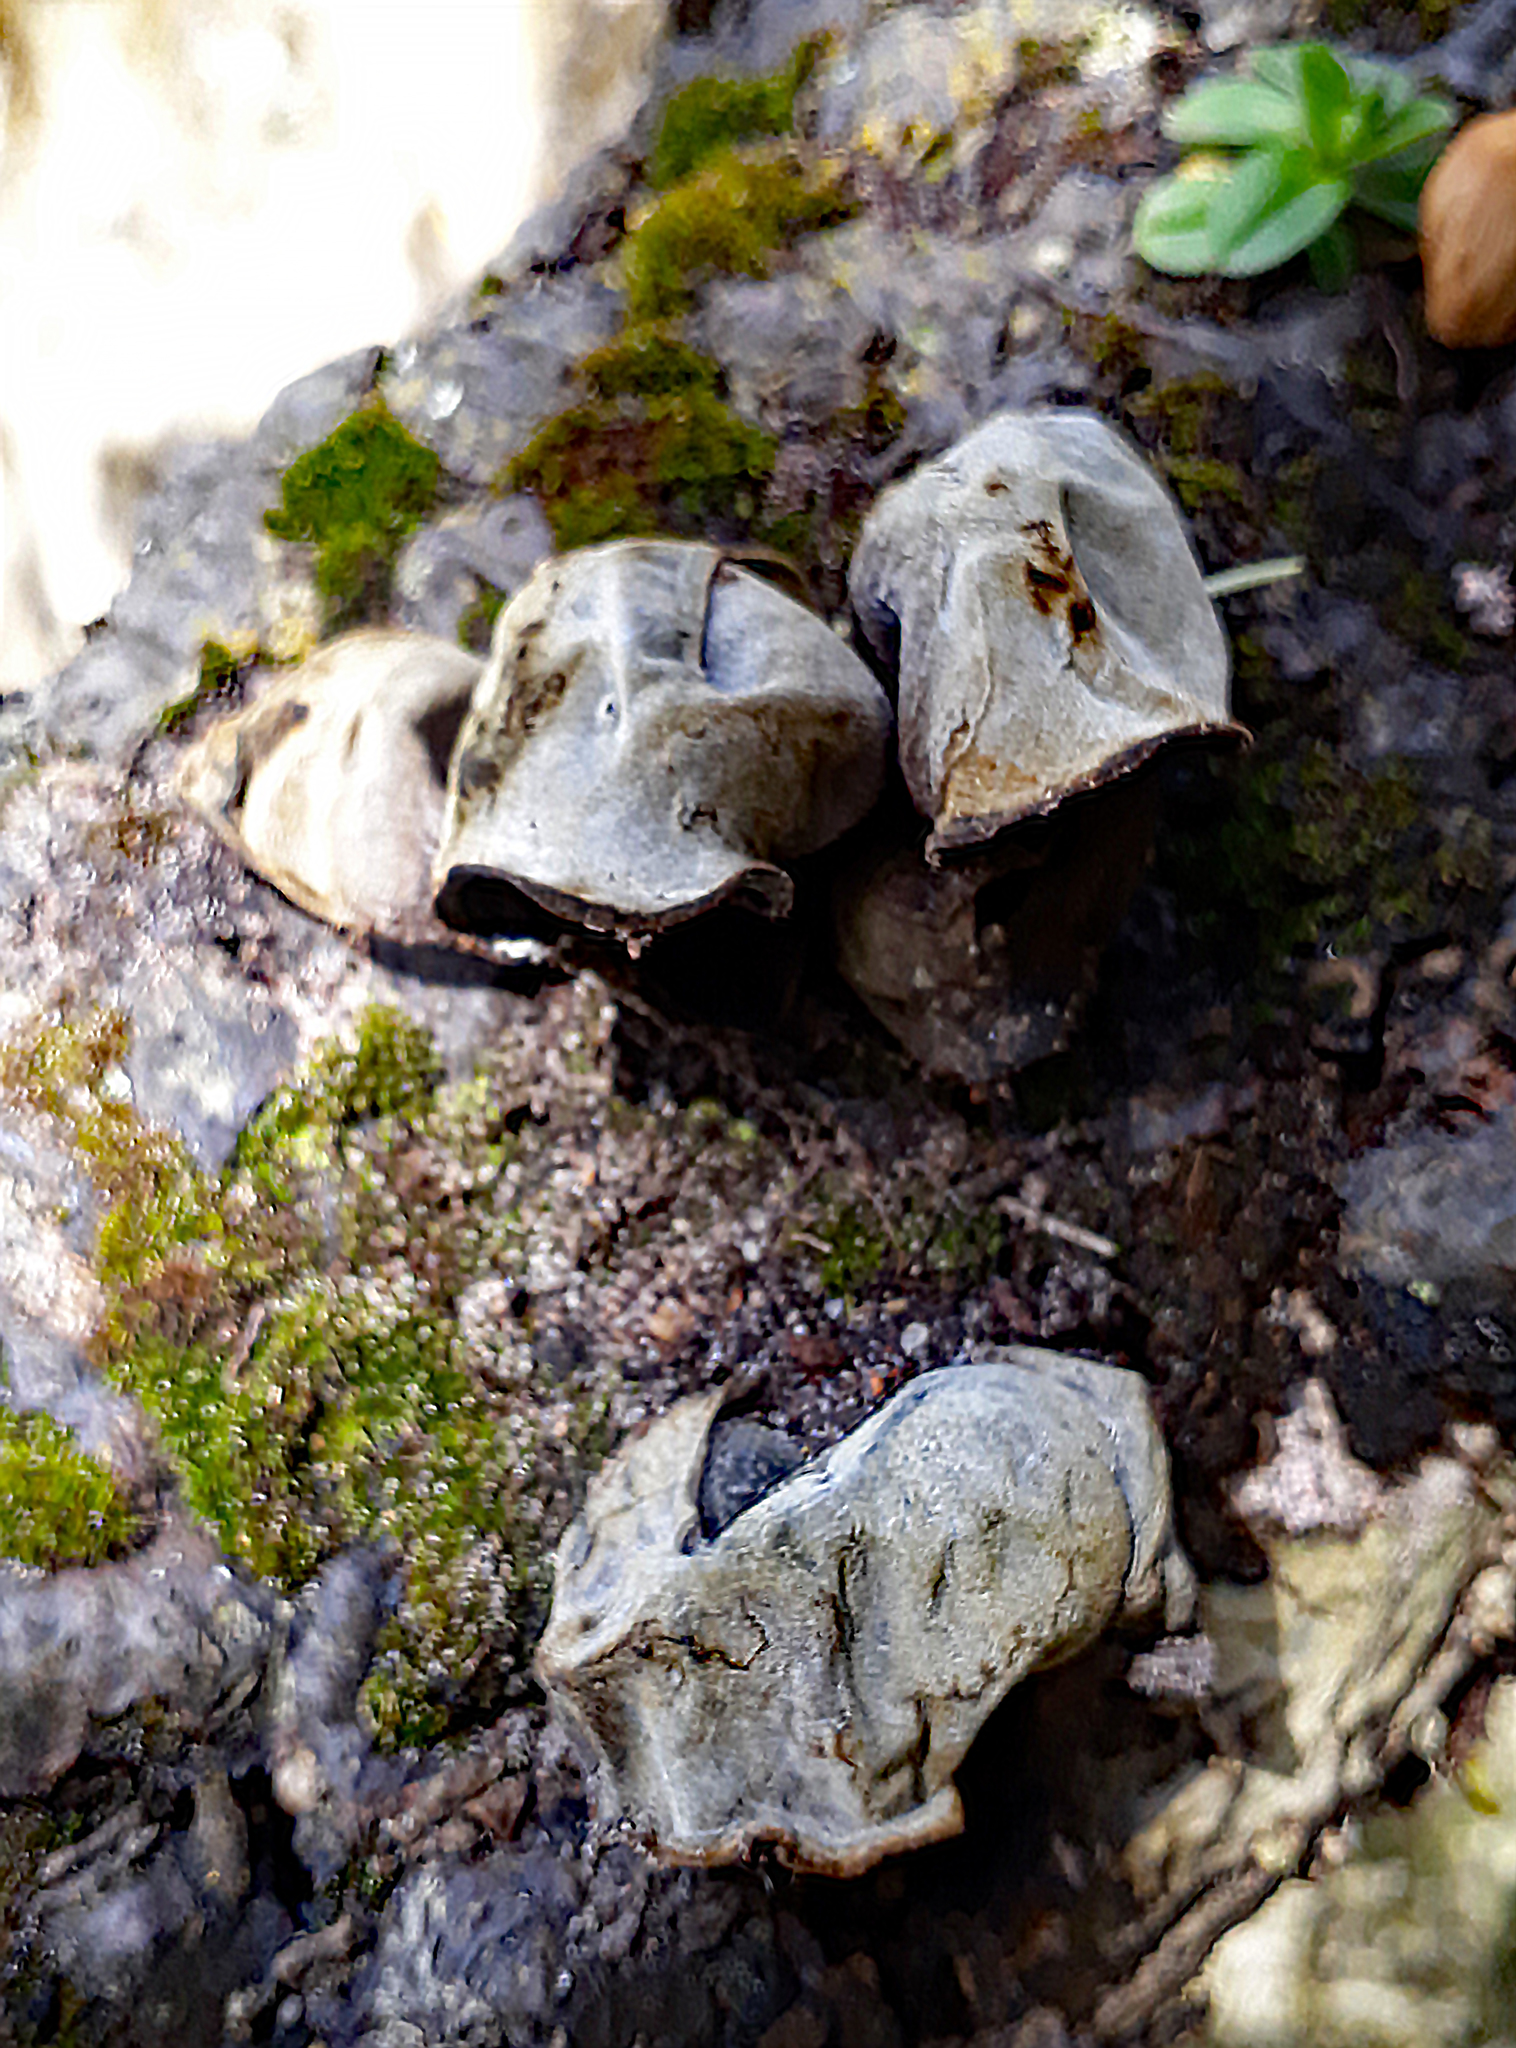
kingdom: Fungi
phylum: Basidiomycota
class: Agaricomycetes
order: Auriculariales
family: Auriculariaceae
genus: Auricularia
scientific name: Auricularia cornea
